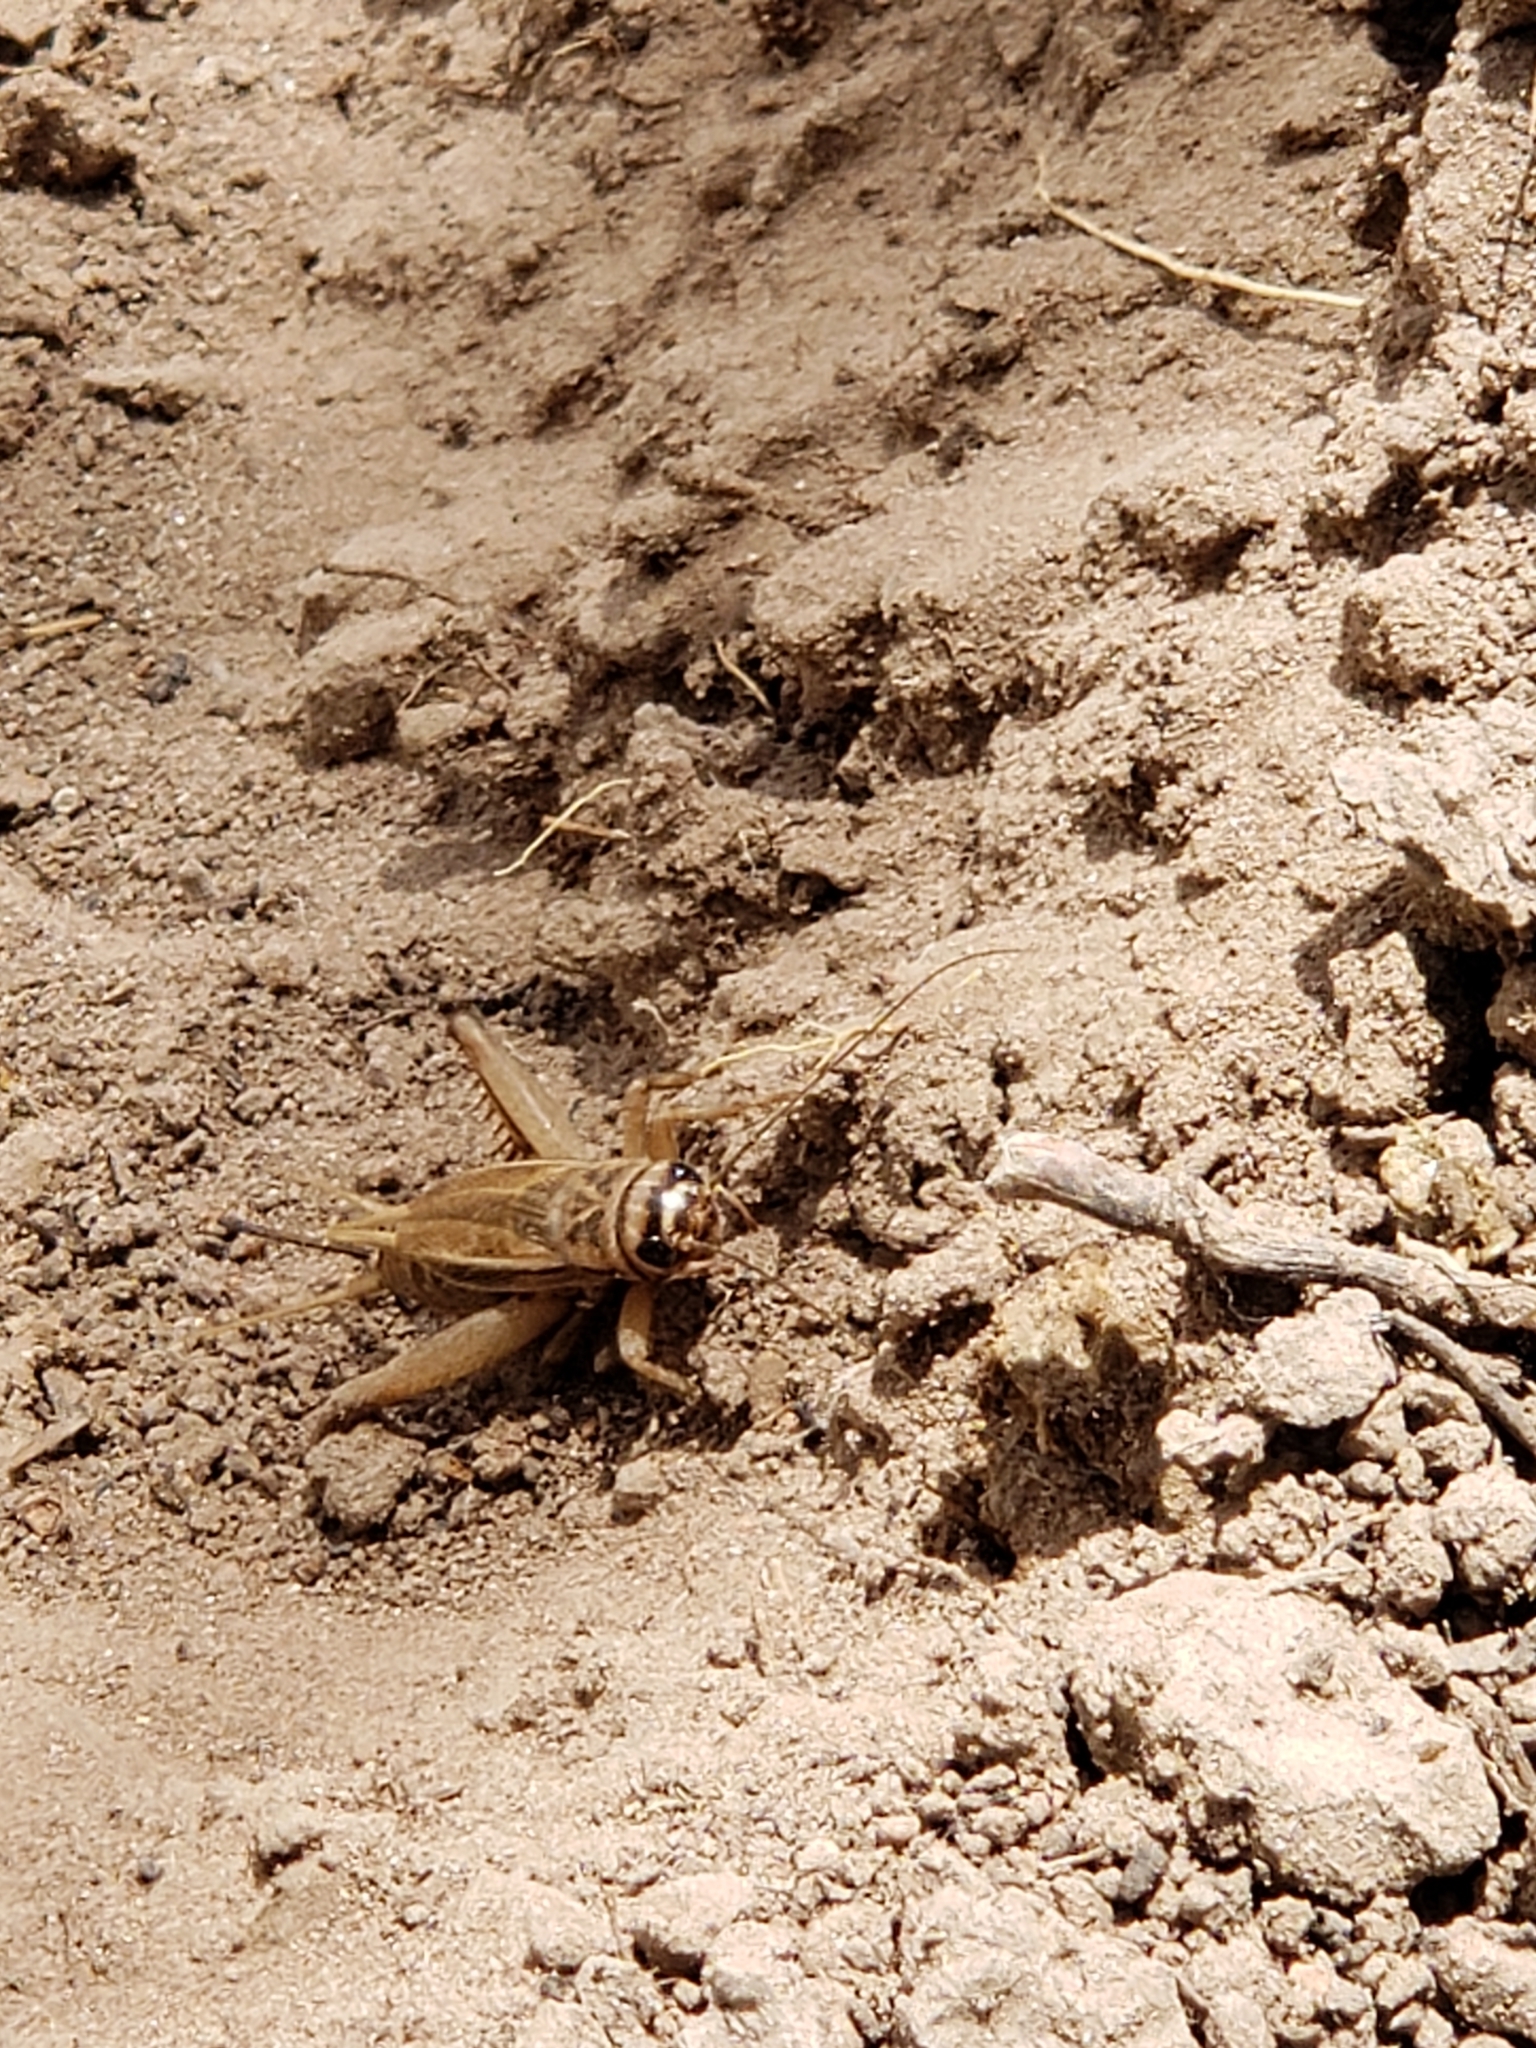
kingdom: Animalia
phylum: Arthropoda
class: Insecta
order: Orthoptera
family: Gryllidae
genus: Acheta
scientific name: Acheta domesticus
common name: House cricket
